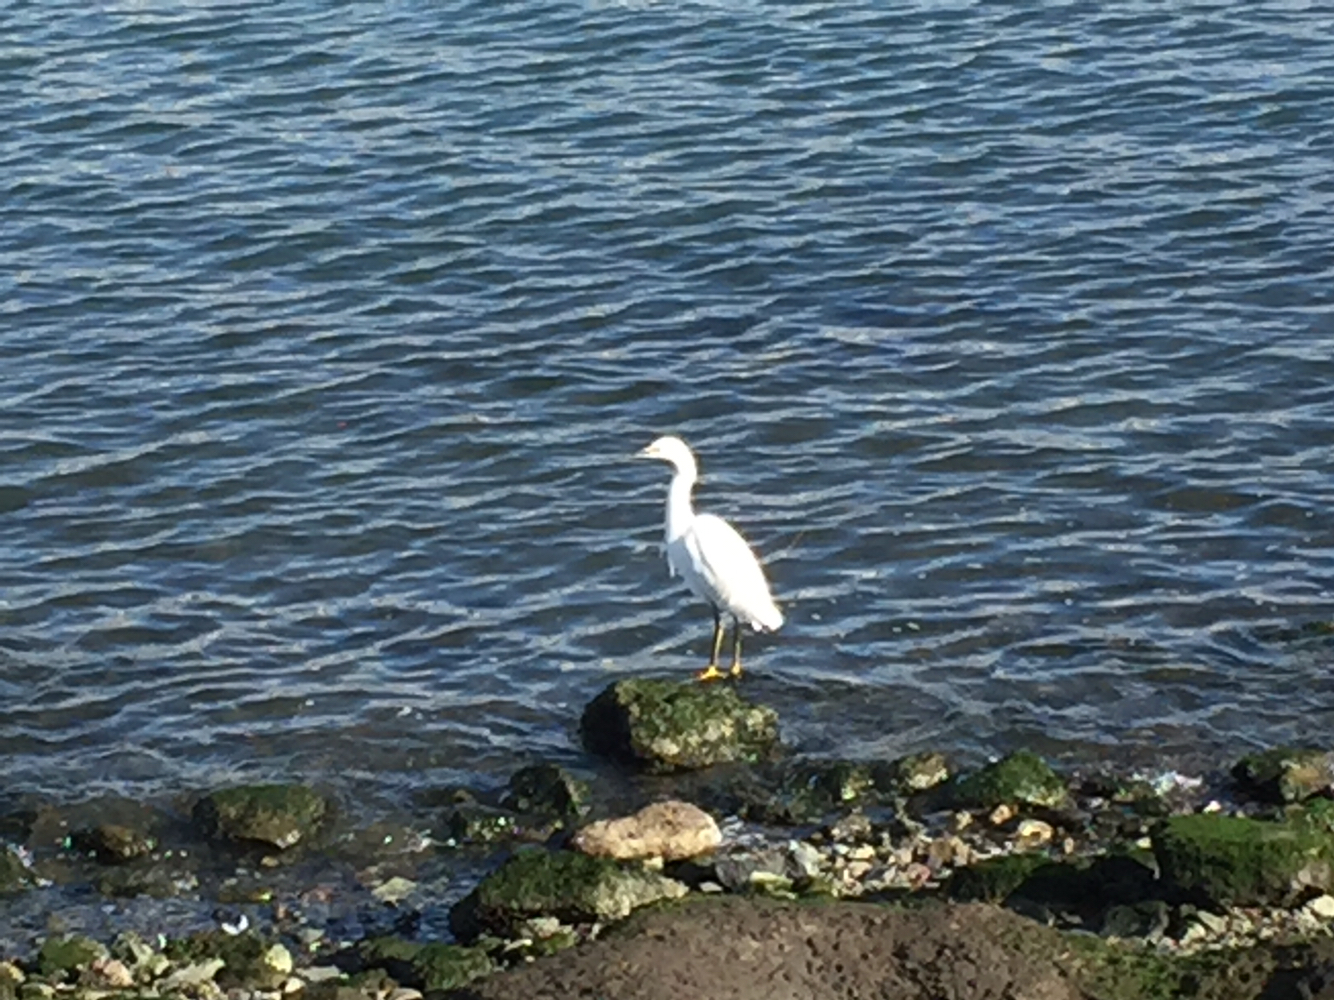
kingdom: Animalia
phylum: Chordata
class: Aves
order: Pelecaniformes
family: Ardeidae
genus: Egretta
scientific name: Egretta thula
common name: Snowy egret
